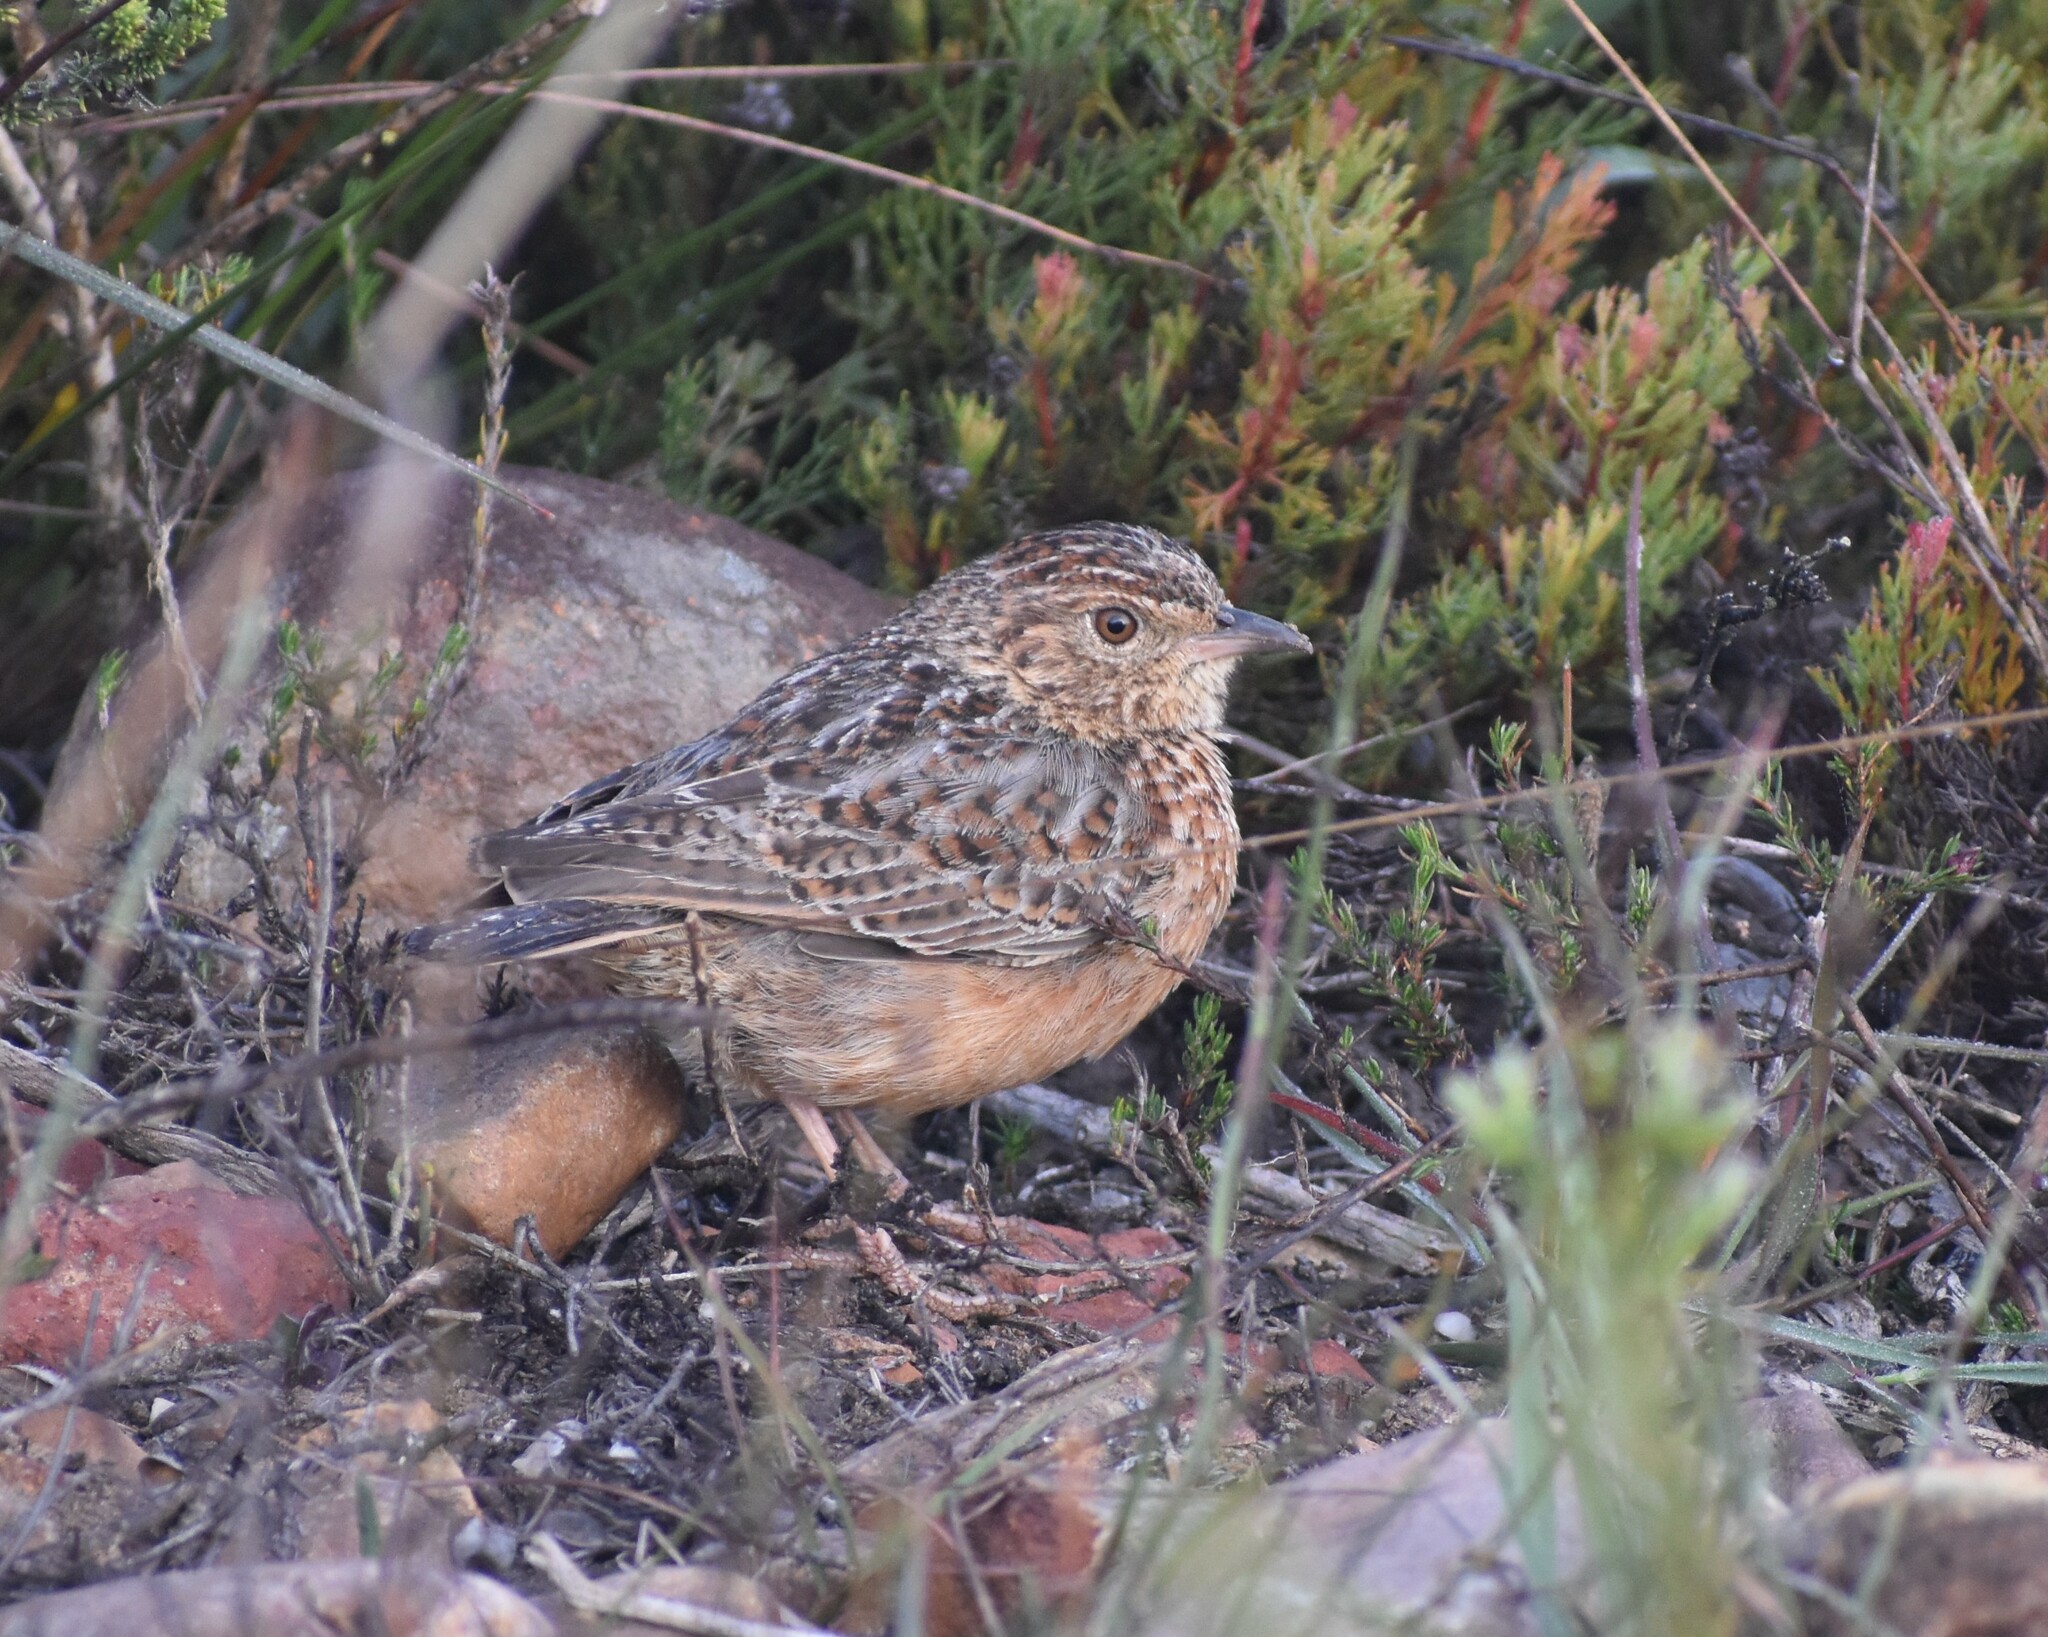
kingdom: Animalia
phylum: Chordata
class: Aves
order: Passeriformes
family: Alaudidae
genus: Mirafra
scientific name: Mirafra apiata
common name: Cape clapper lark
